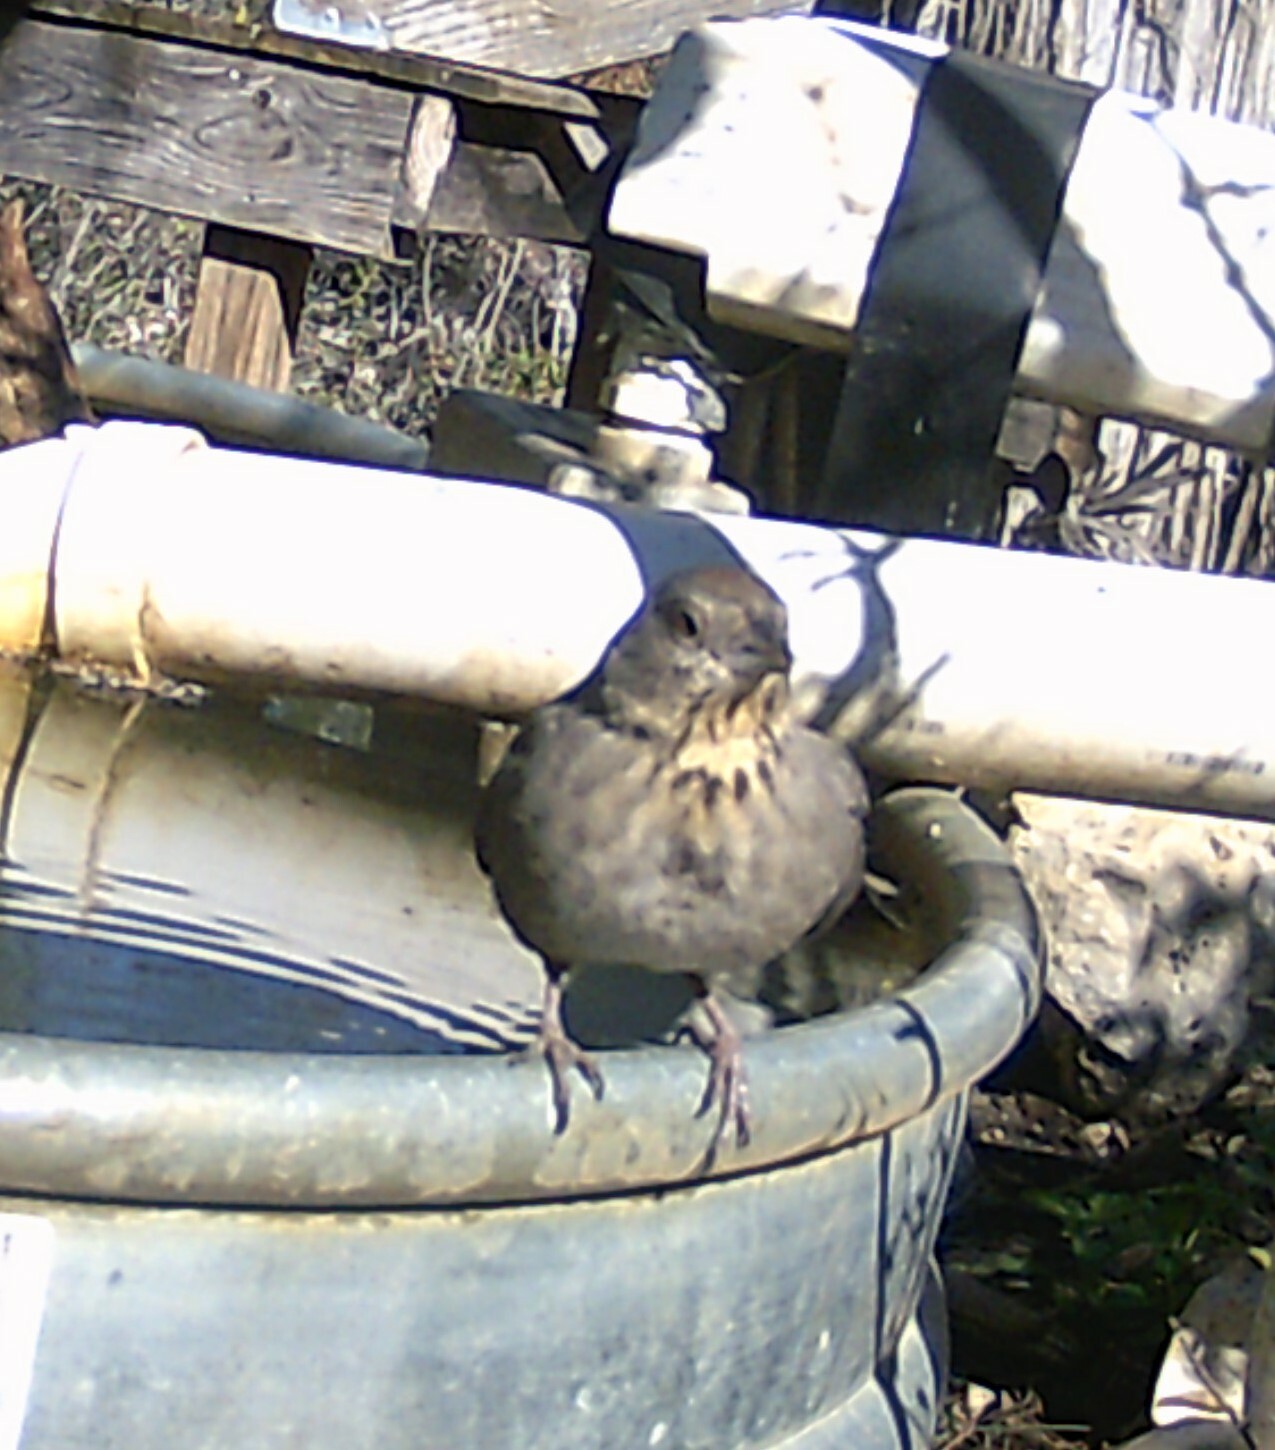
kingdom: Animalia
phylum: Chordata
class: Aves
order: Passeriformes
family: Passerellidae
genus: Melozone
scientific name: Melozone fusca
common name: Canyon towhee
